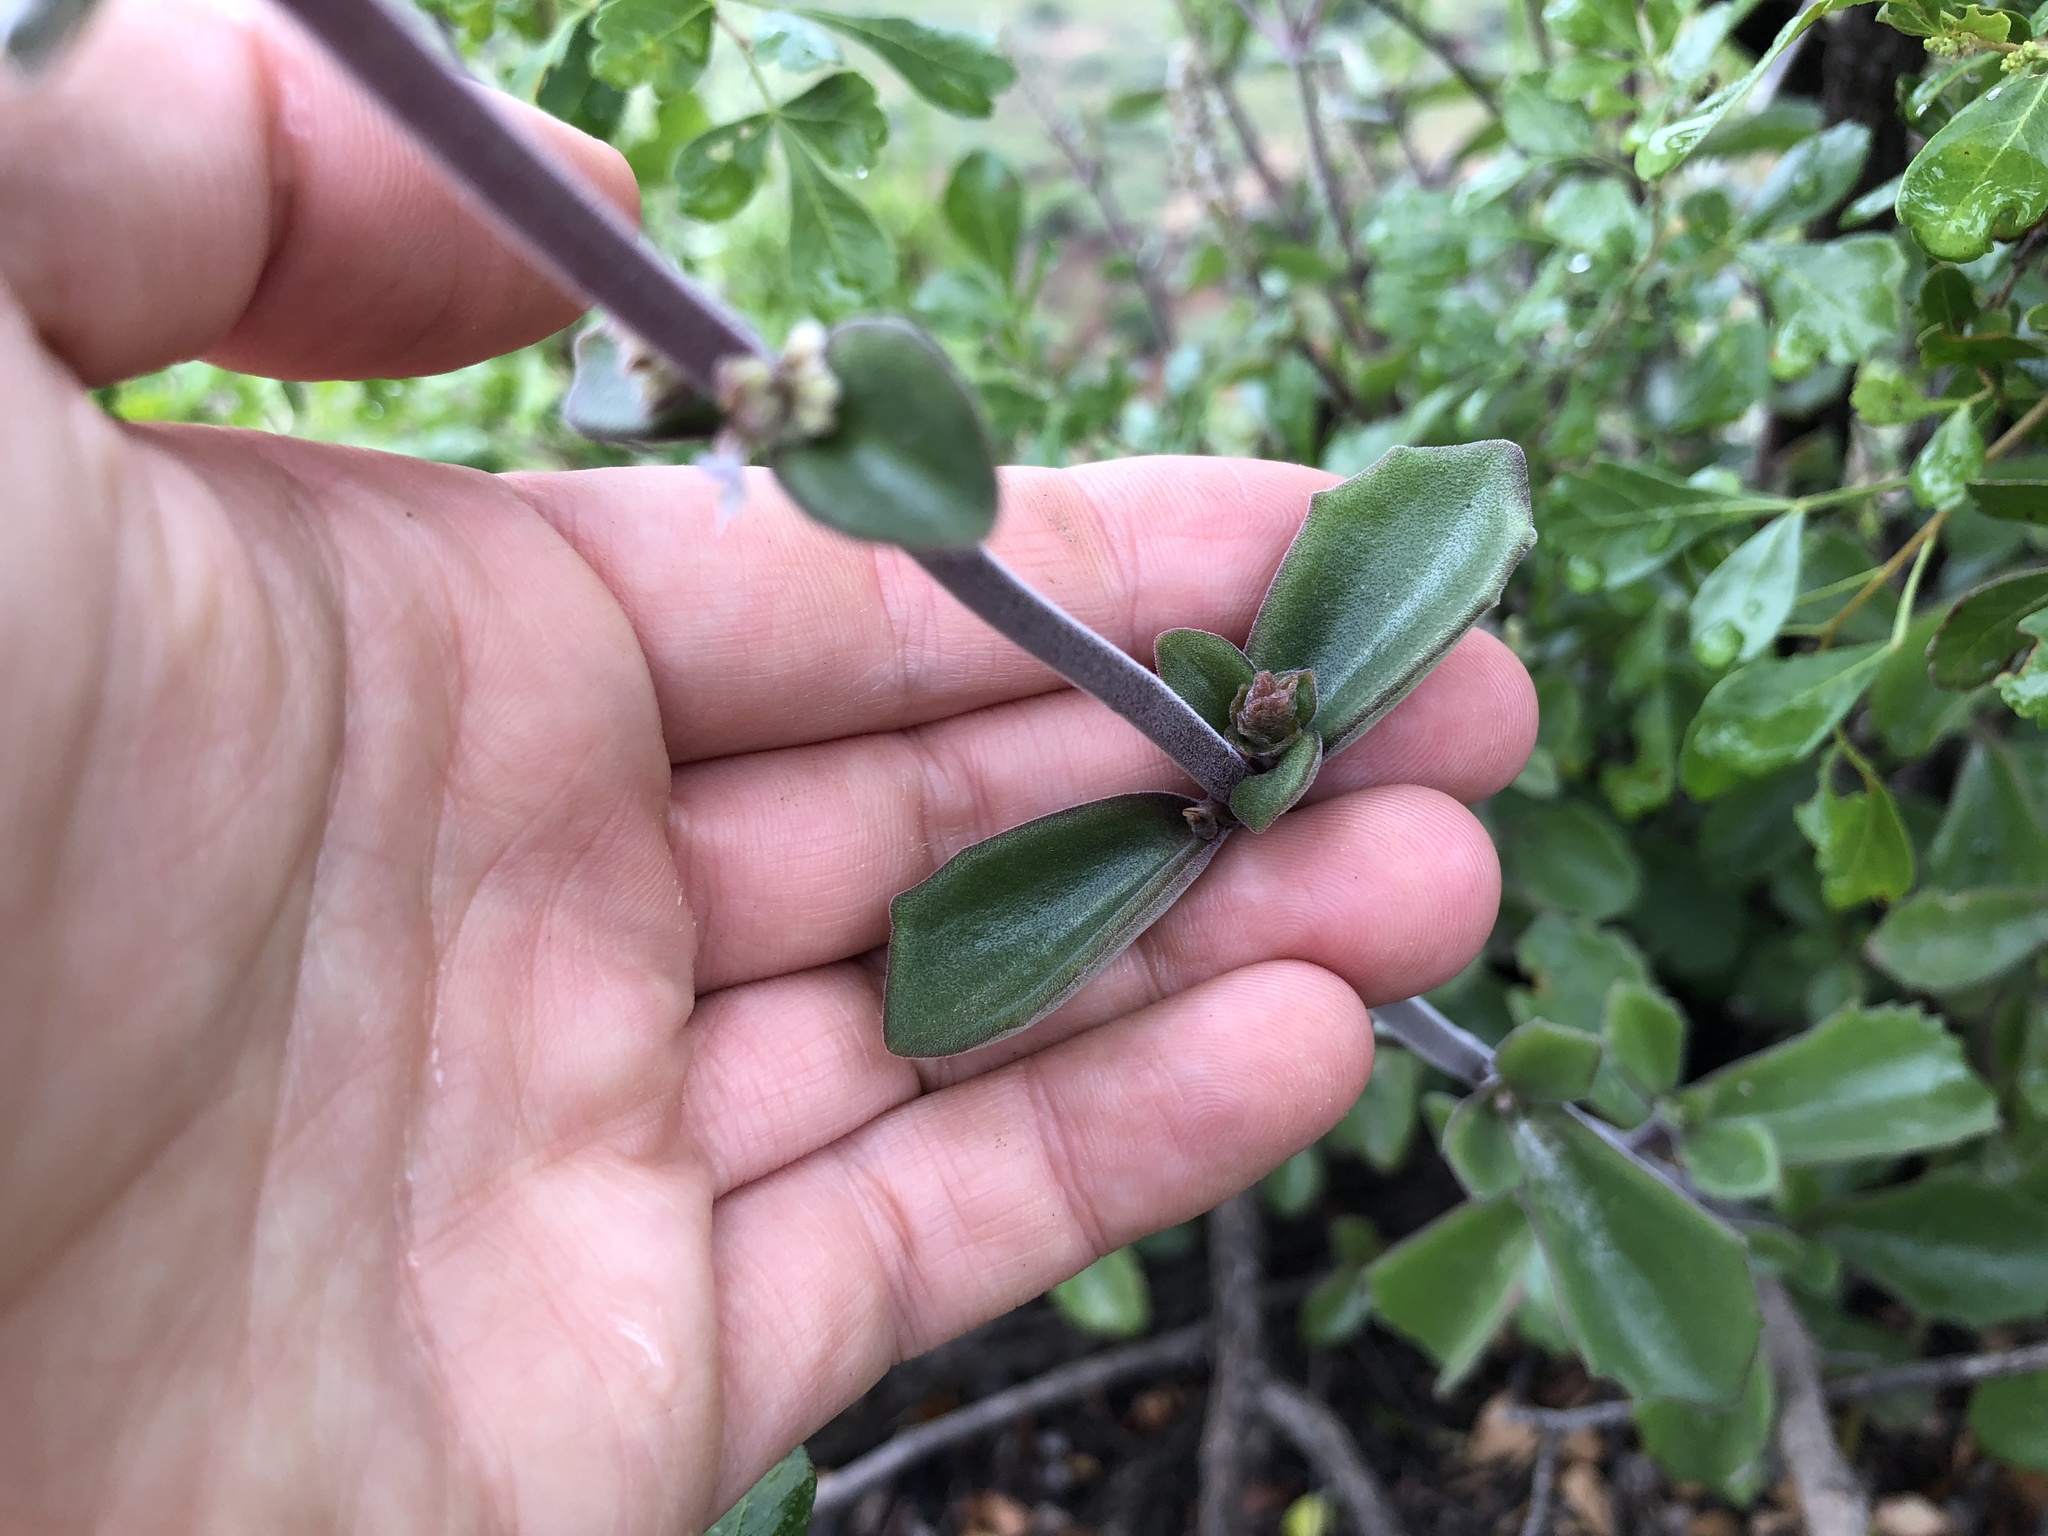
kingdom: Plantae
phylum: Tracheophyta
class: Magnoliopsida
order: Lamiales
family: Lamiaceae
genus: Coleus
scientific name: Coleus cylindraceus
